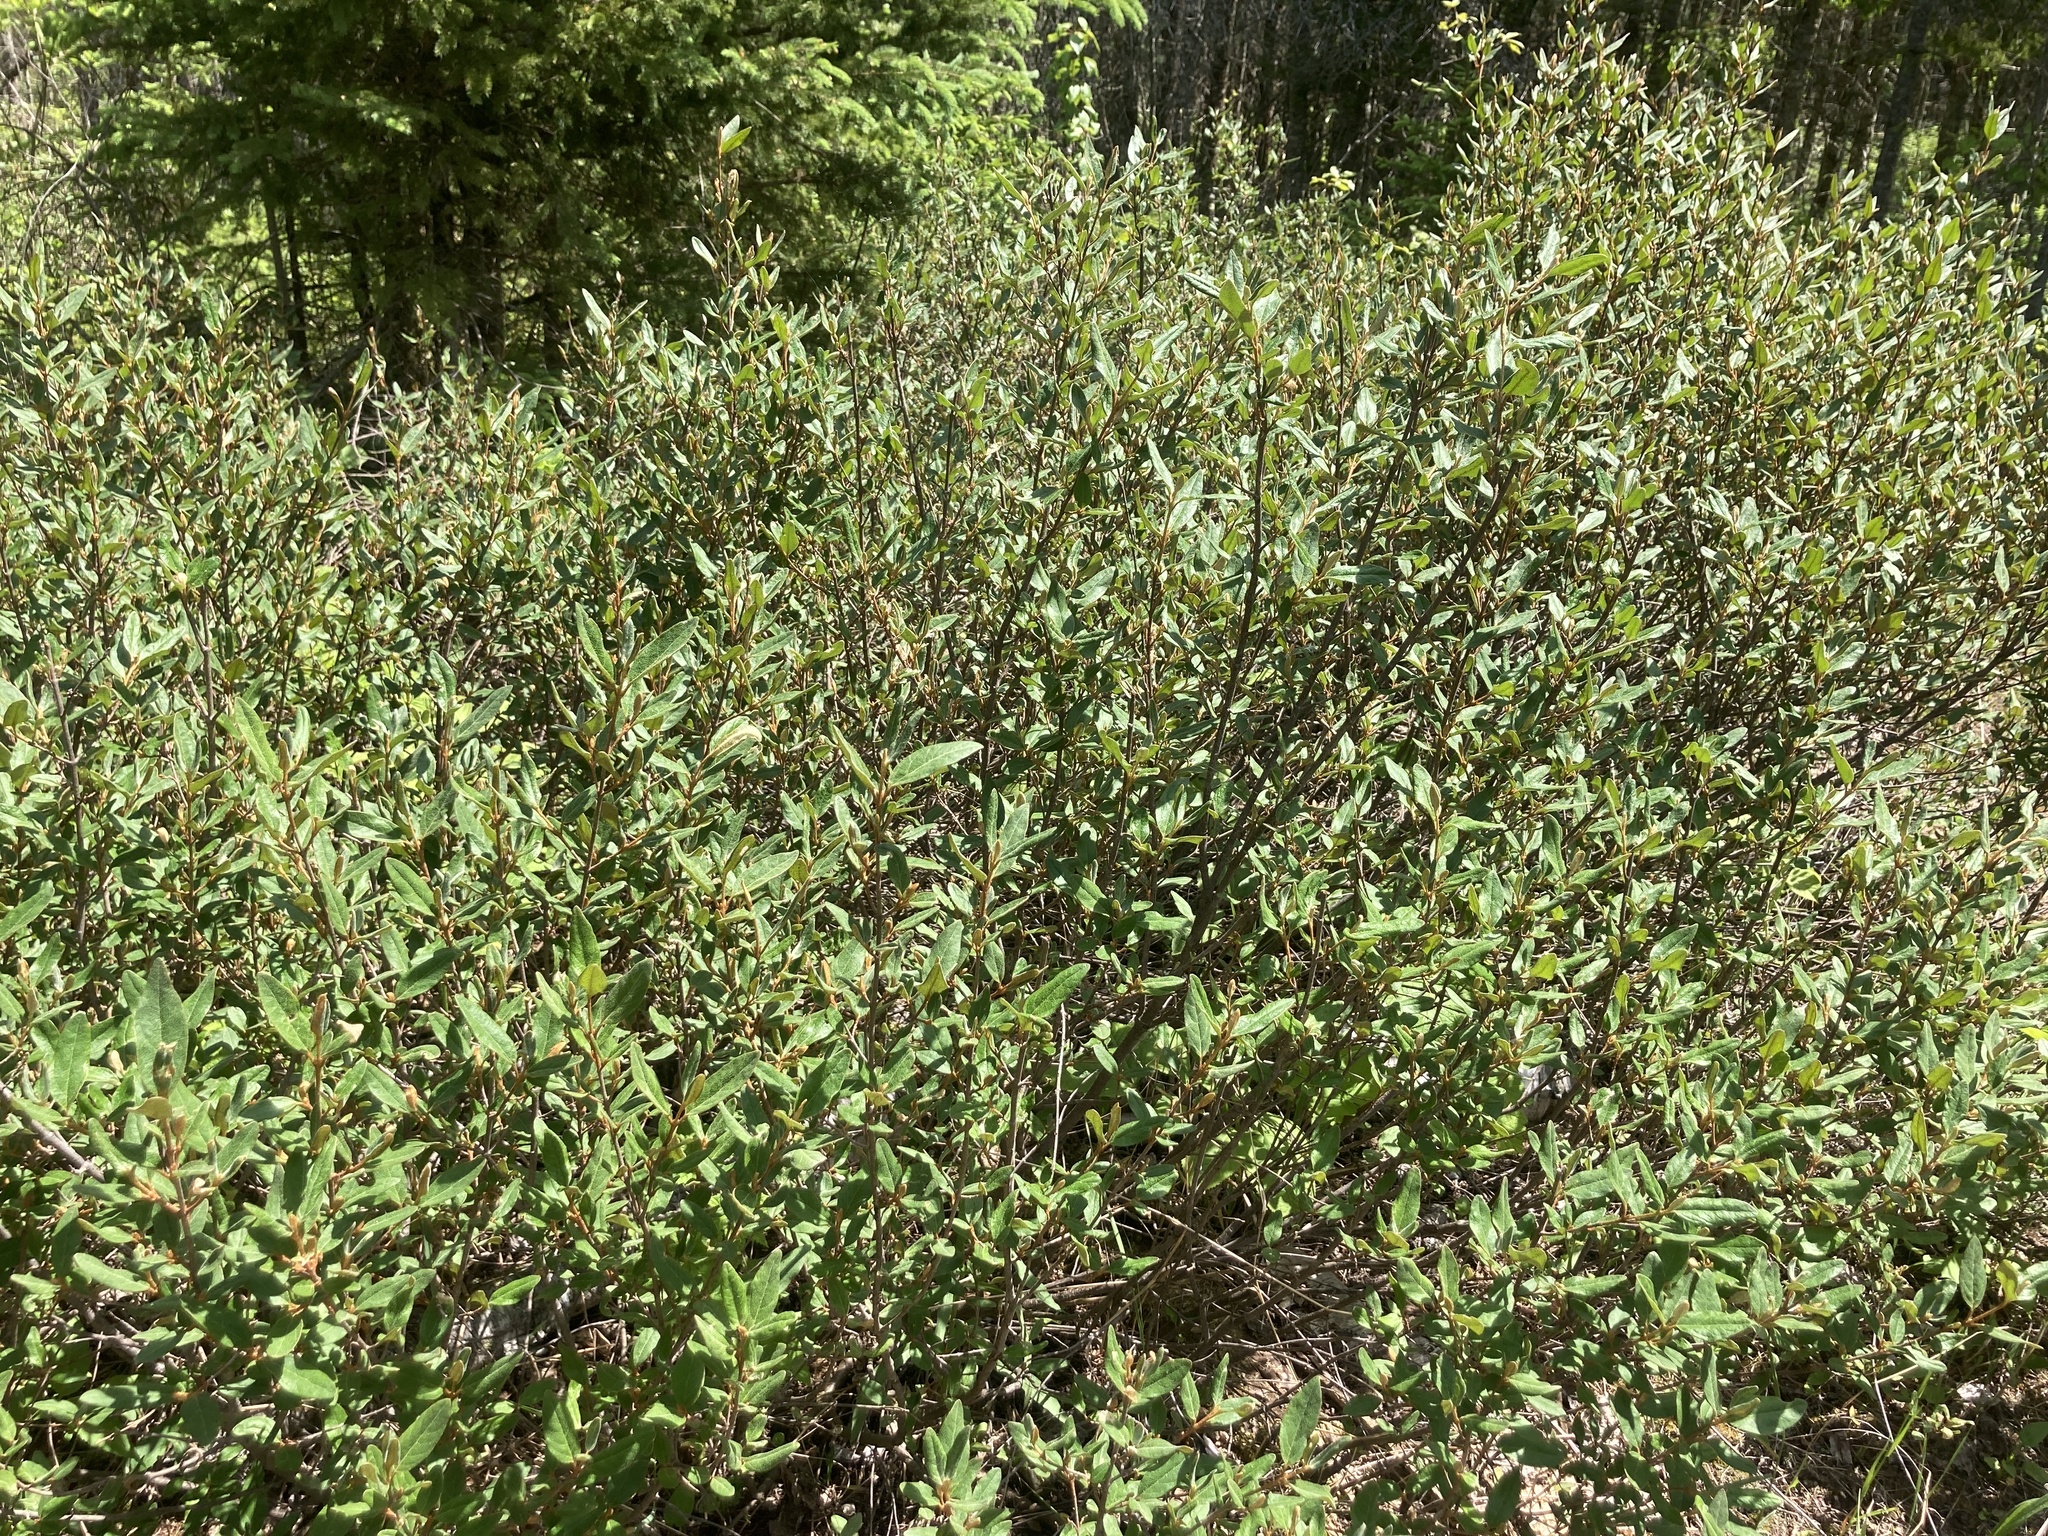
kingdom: Plantae
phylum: Tracheophyta
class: Magnoliopsida
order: Rosales
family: Elaeagnaceae
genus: Shepherdia
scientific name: Shepherdia canadensis
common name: Soapberry
